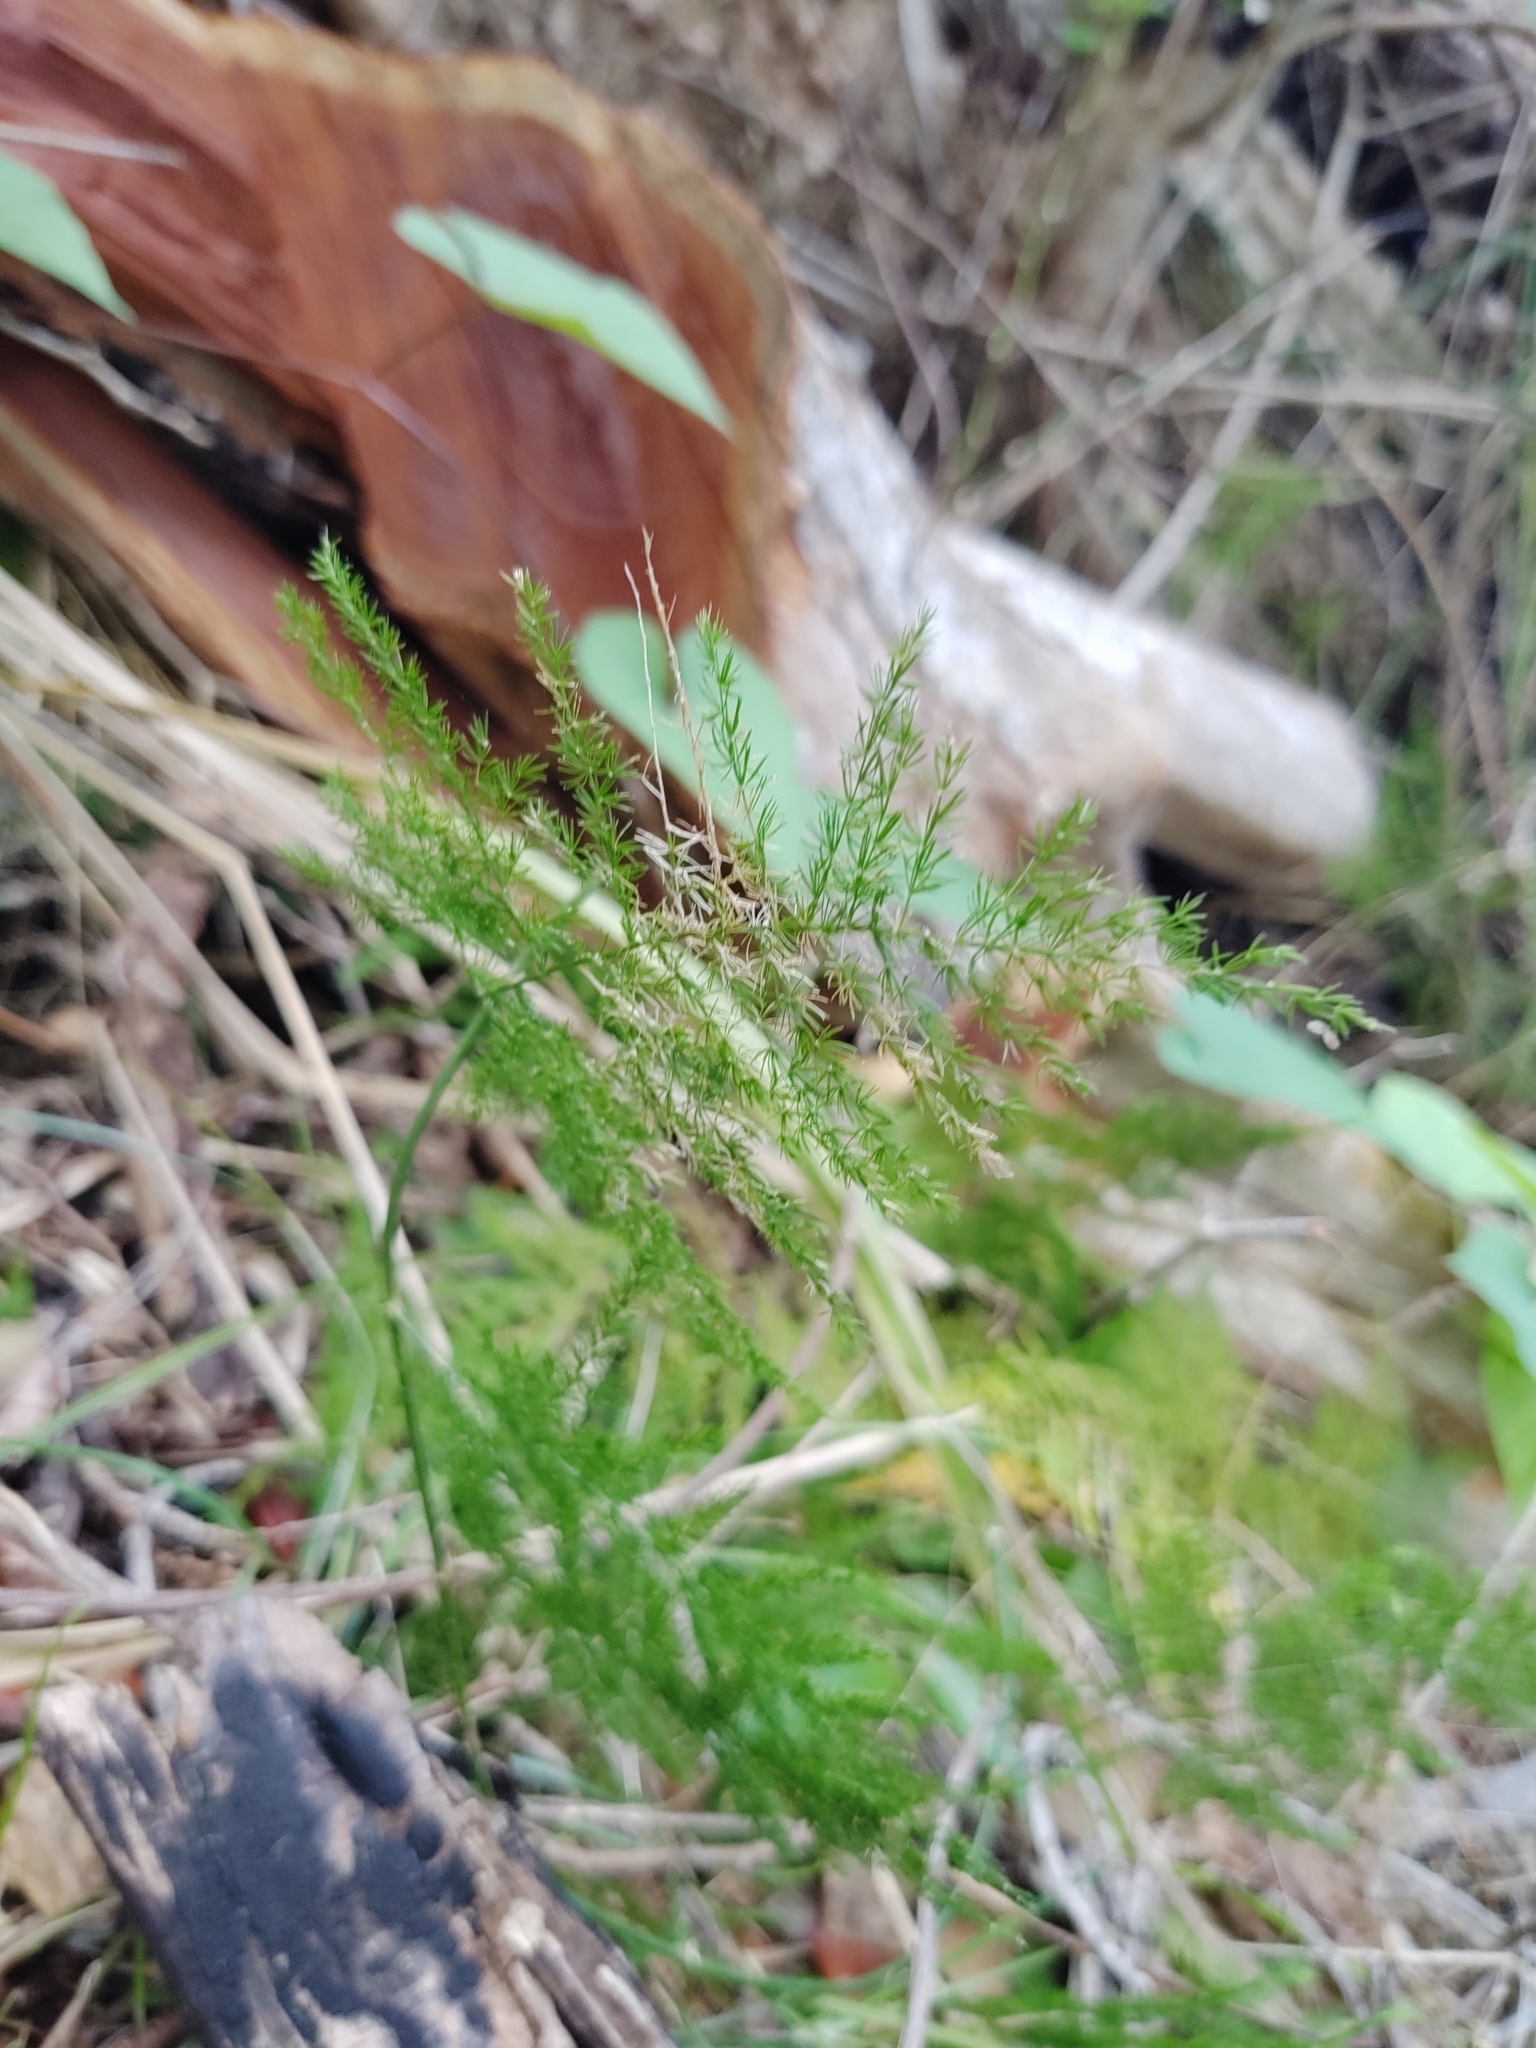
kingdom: Plantae
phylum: Tracheophyta
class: Liliopsida
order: Asparagales
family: Asparagaceae
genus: Asparagus
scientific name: Asparagus setaceus
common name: Common asparagus fern
